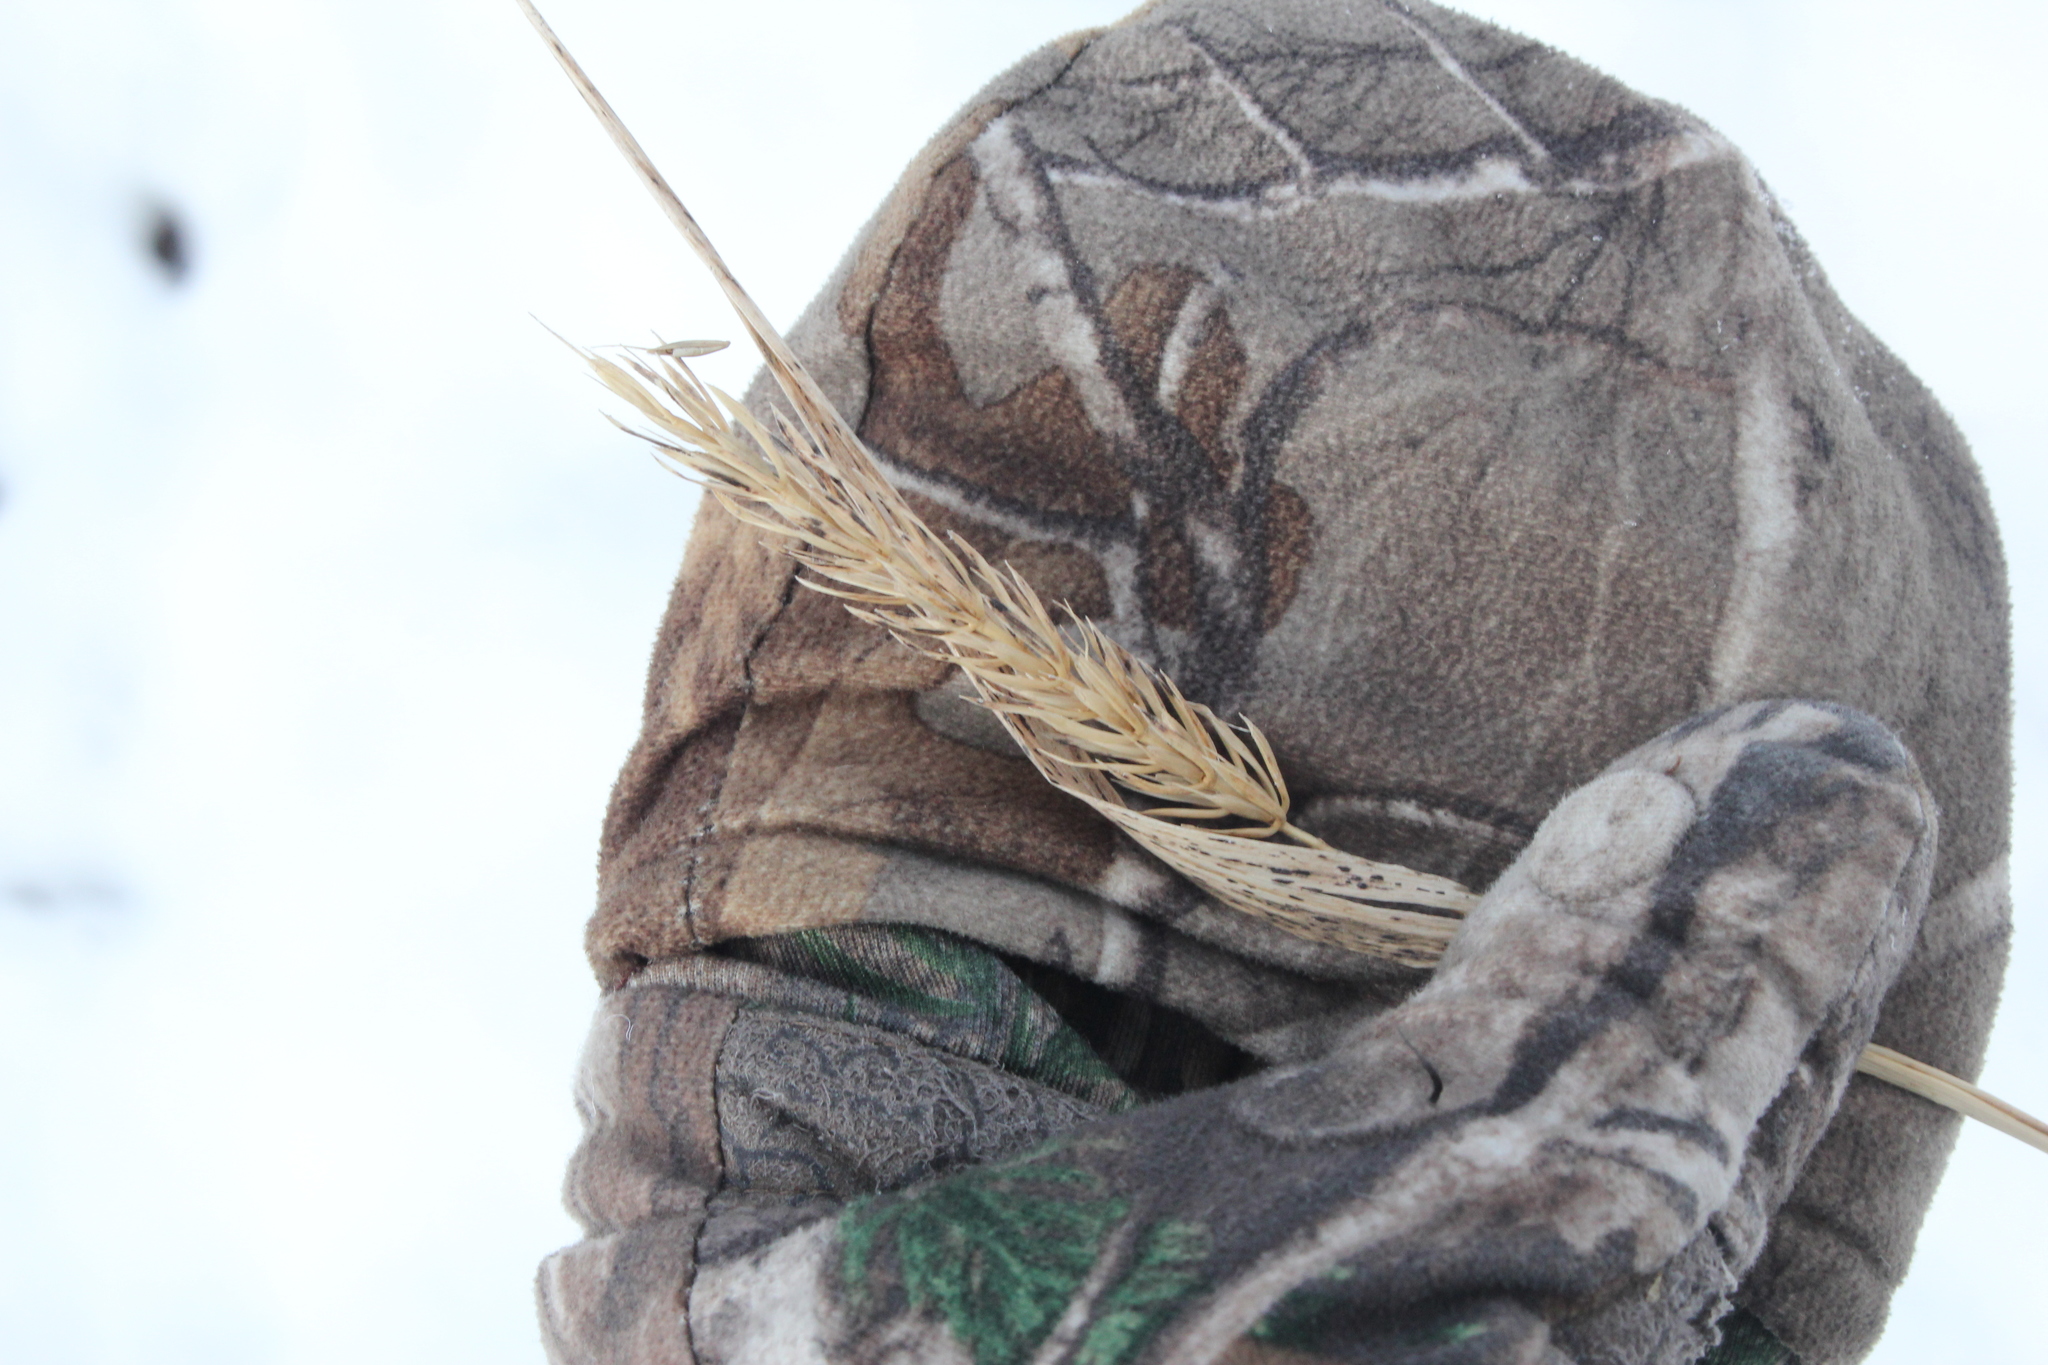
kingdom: Plantae
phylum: Tracheophyta
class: Liliopsida
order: Poales
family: Poaceae
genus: Elymus
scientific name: Elymus virginicus
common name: Common eastern wildrye
